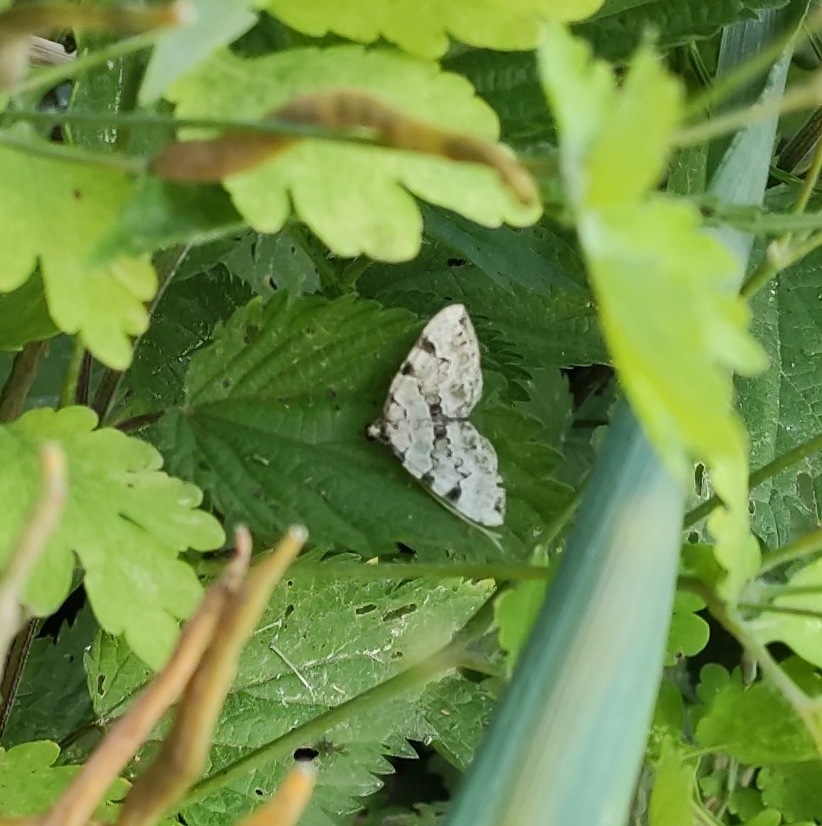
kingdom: Animalia
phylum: Arthropoda
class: Insecta
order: Lepidoptera
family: Geometridae
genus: Colostygia
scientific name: Colostygia pectinataria
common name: Green carpet
